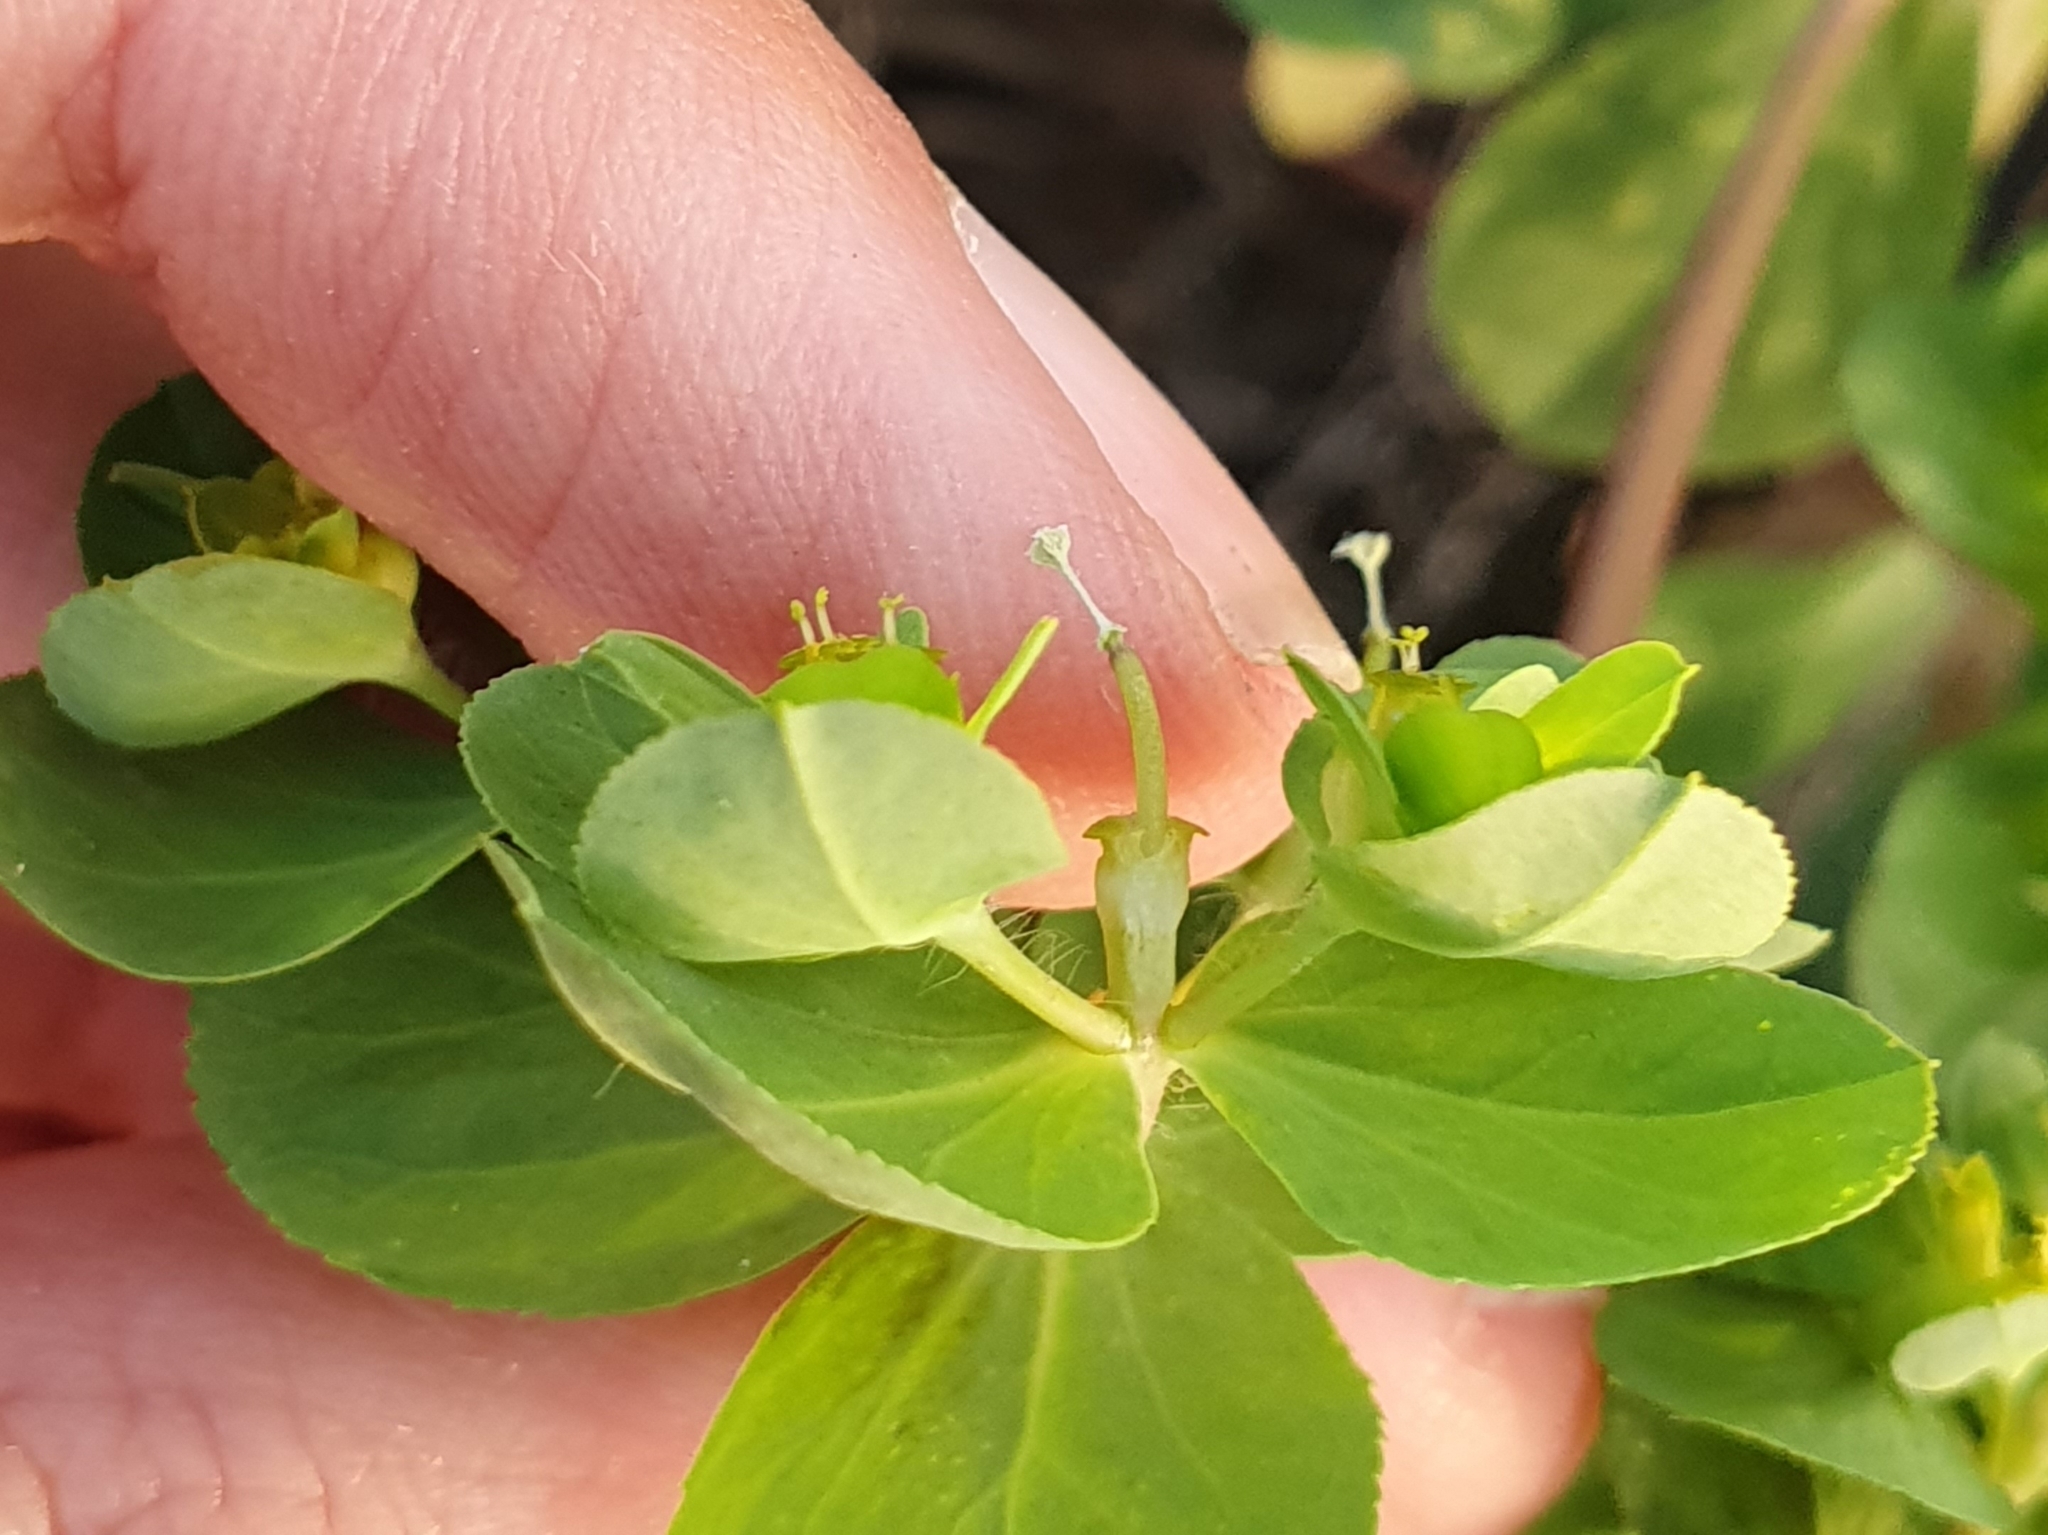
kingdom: Plantae
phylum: Tracheophyta
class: Magnoliopsida
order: Malpighiales
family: Euphorbiaceae
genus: Euphorbia
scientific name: Euphorbia helioscopia
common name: Sun spurge
